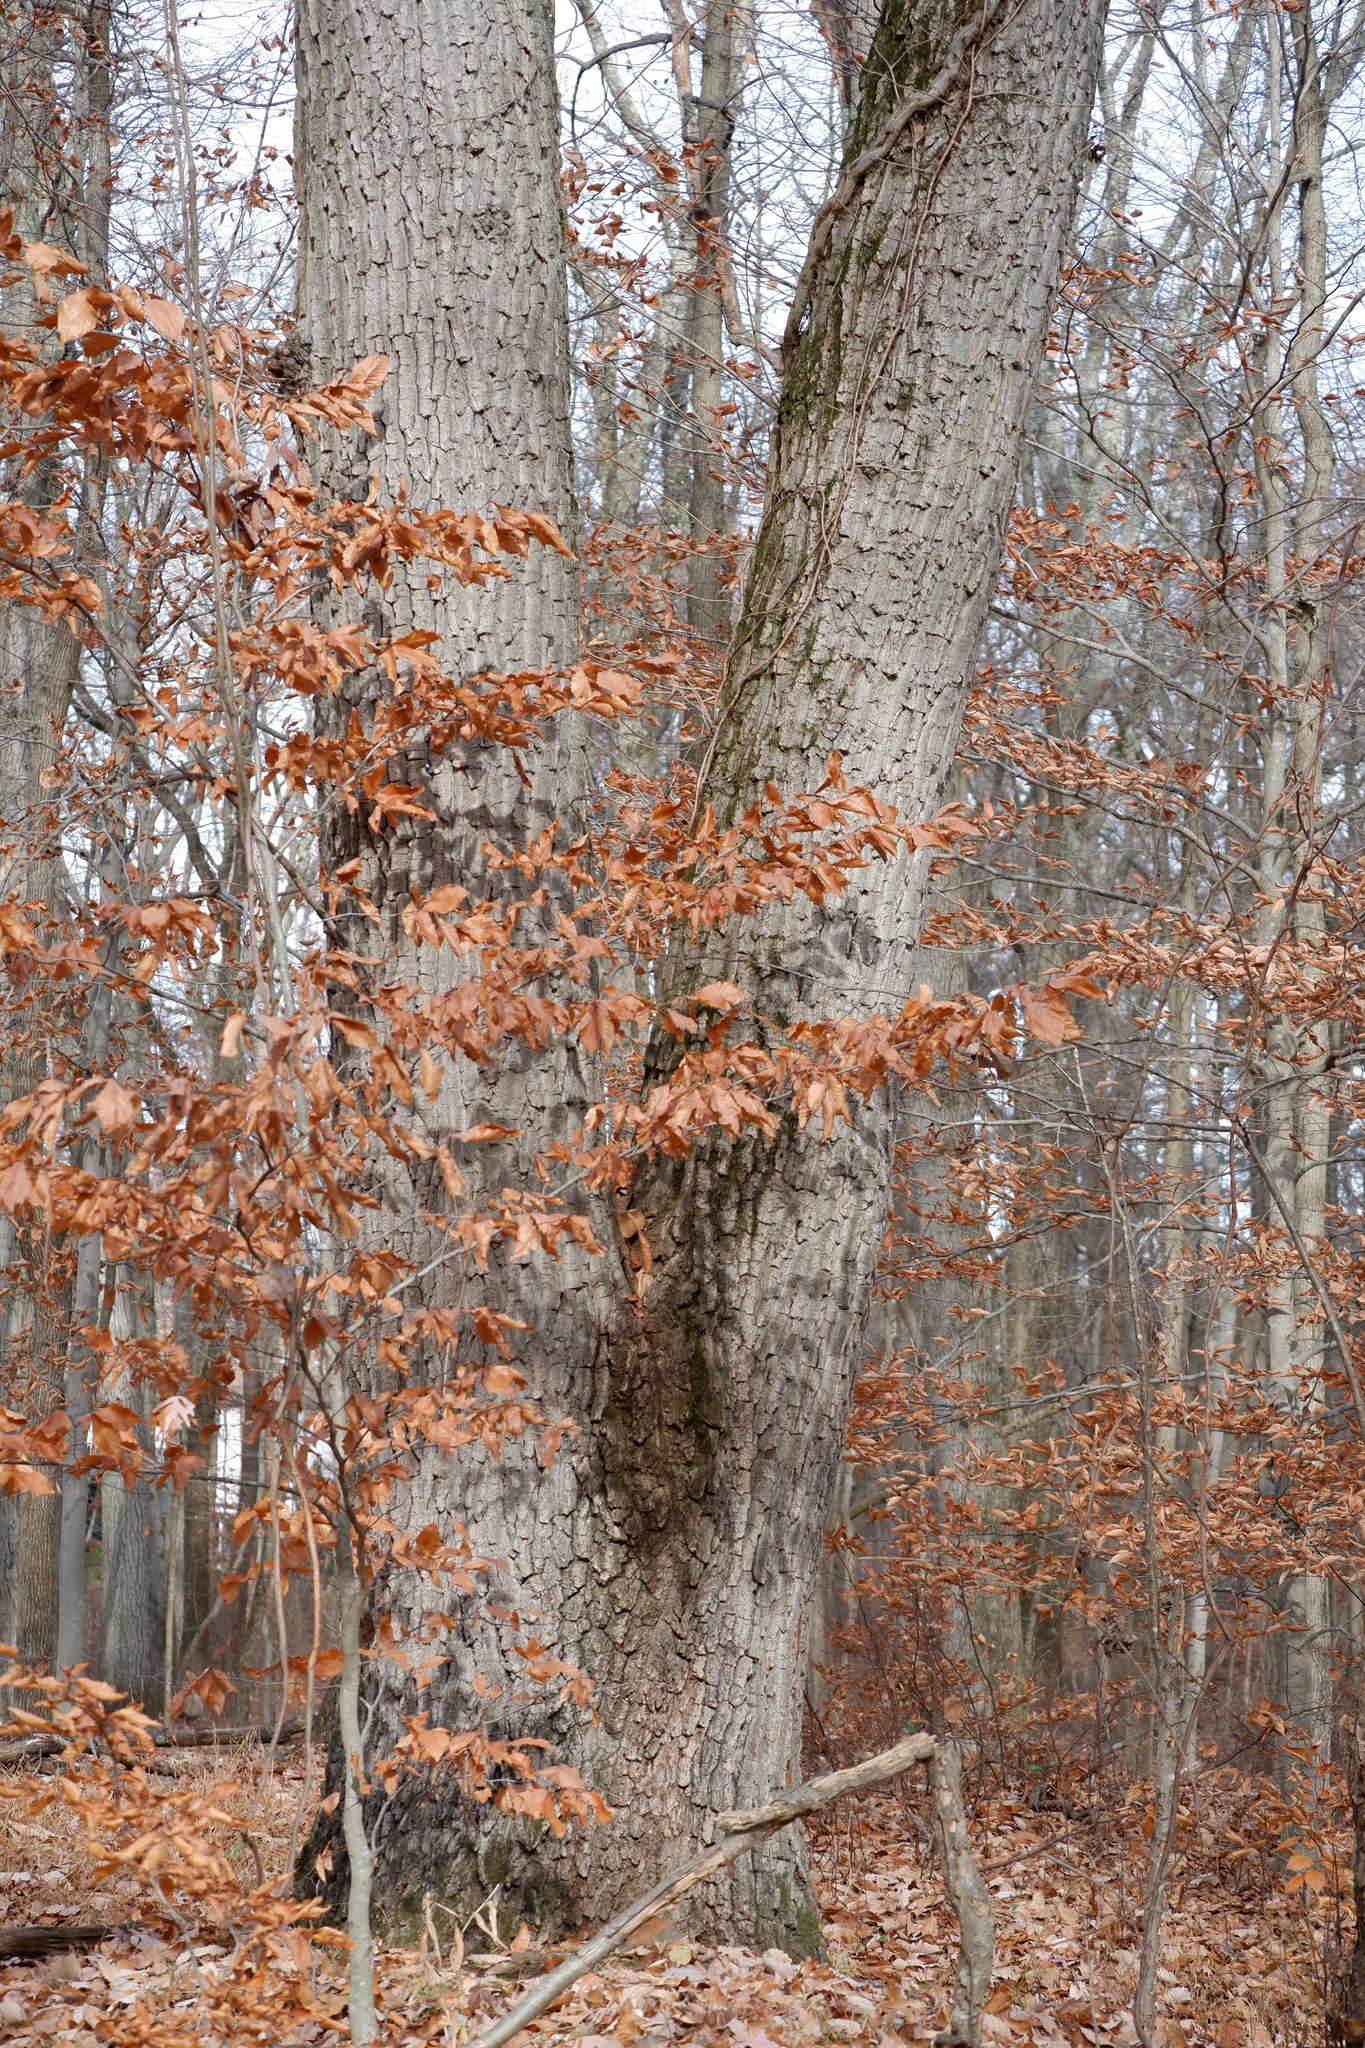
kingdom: Plantae
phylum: Tracheophyta
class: Magnoliopsida
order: Fagales
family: Fagaceae
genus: Quercus
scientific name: Quercus montana
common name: Chestnut oak
